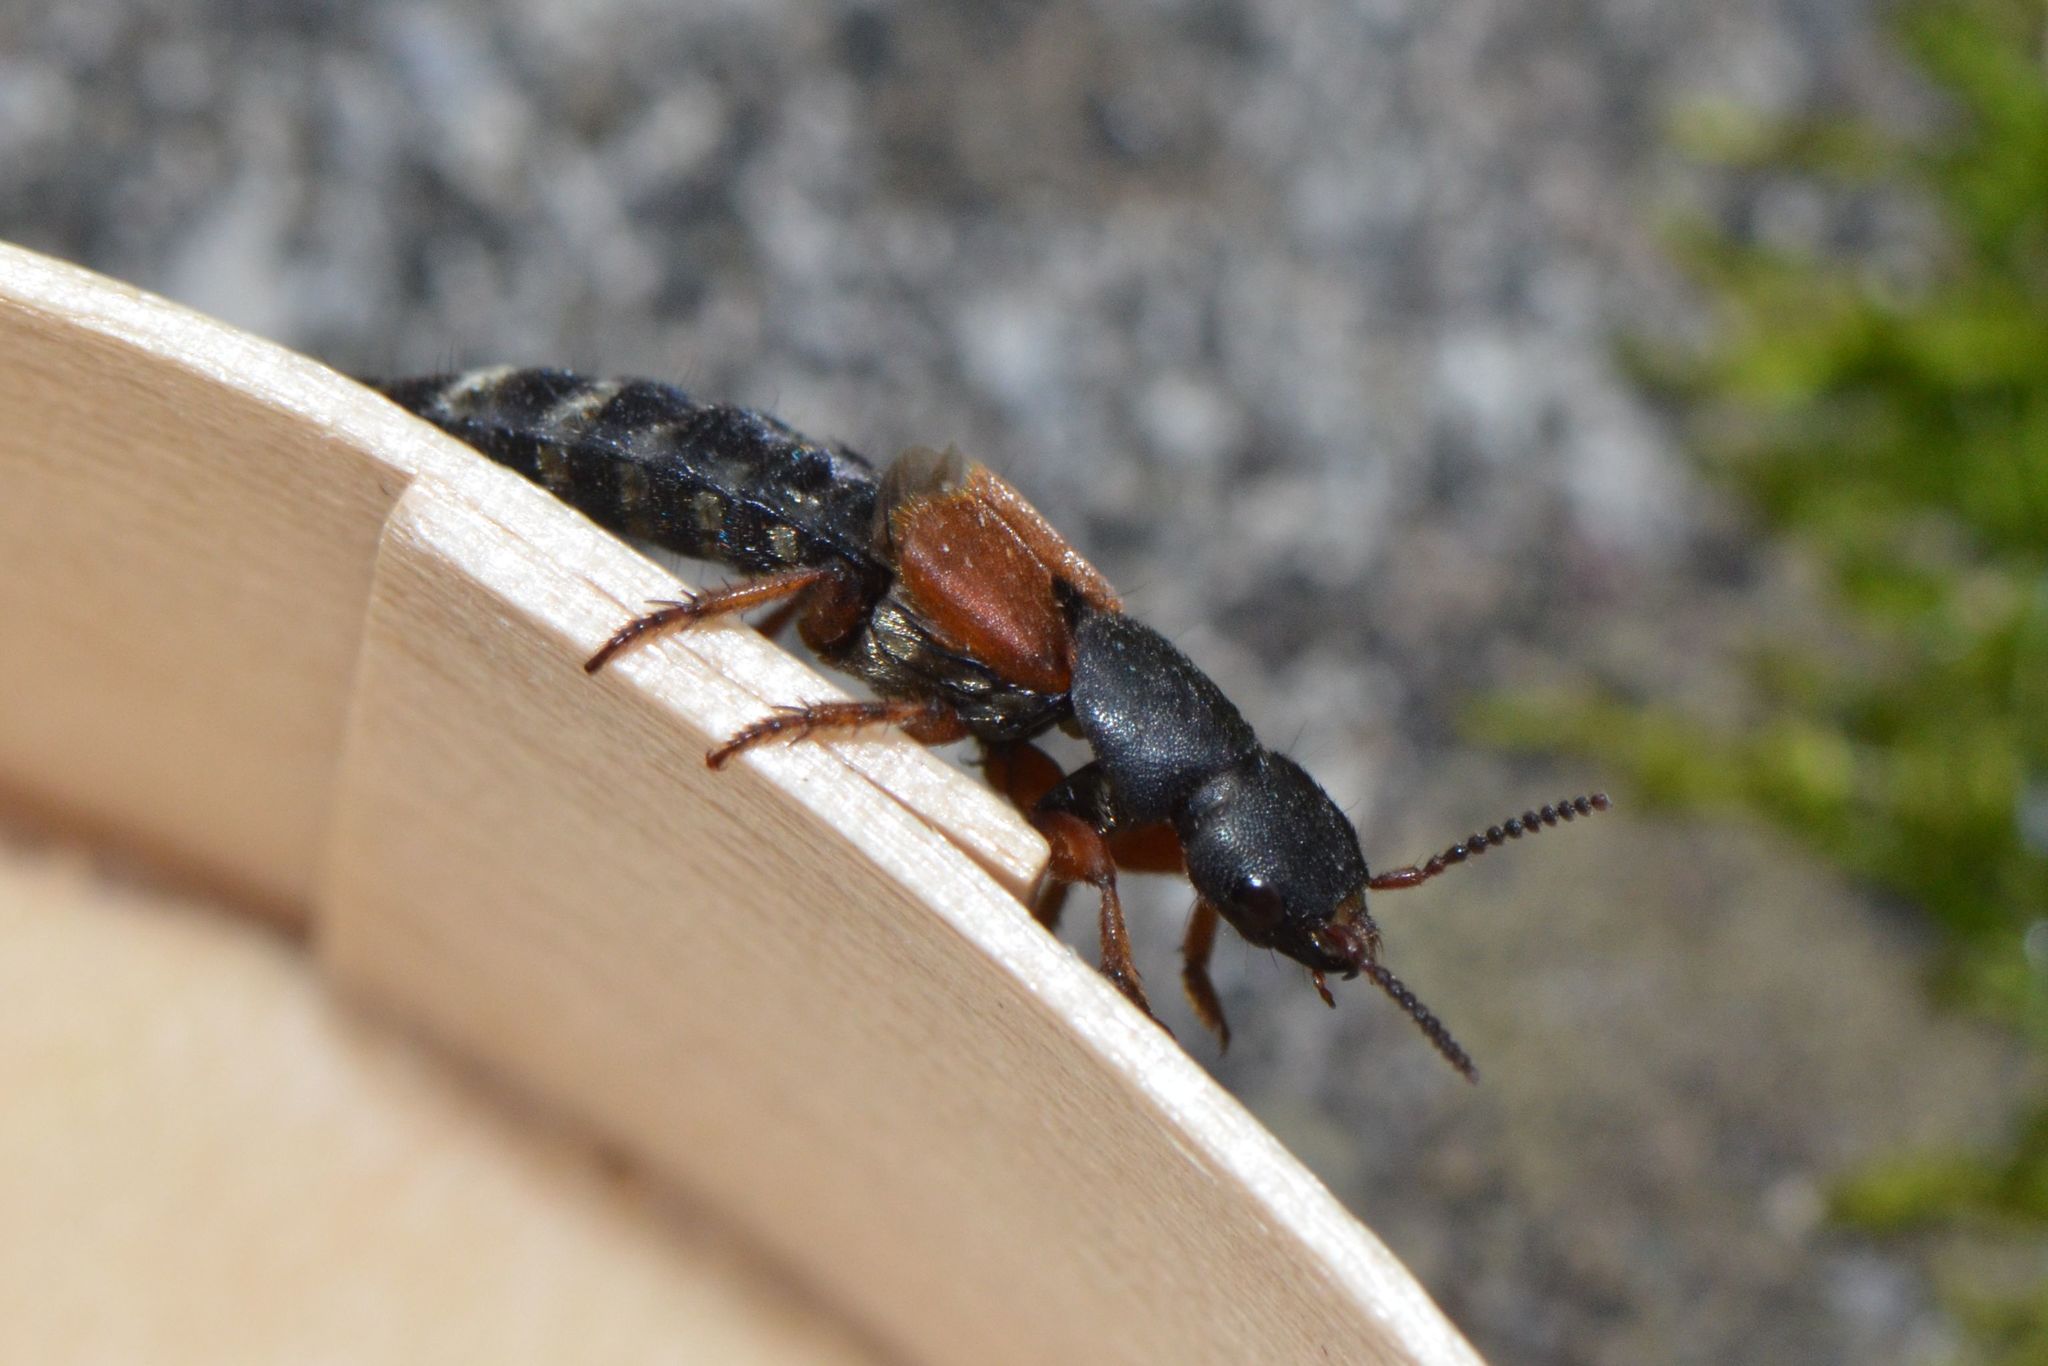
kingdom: Animalia
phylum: Arthropoda
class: Insecta
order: Coleoptera
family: Staphylinidae
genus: Platydracus
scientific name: Platydracus stercorarius
